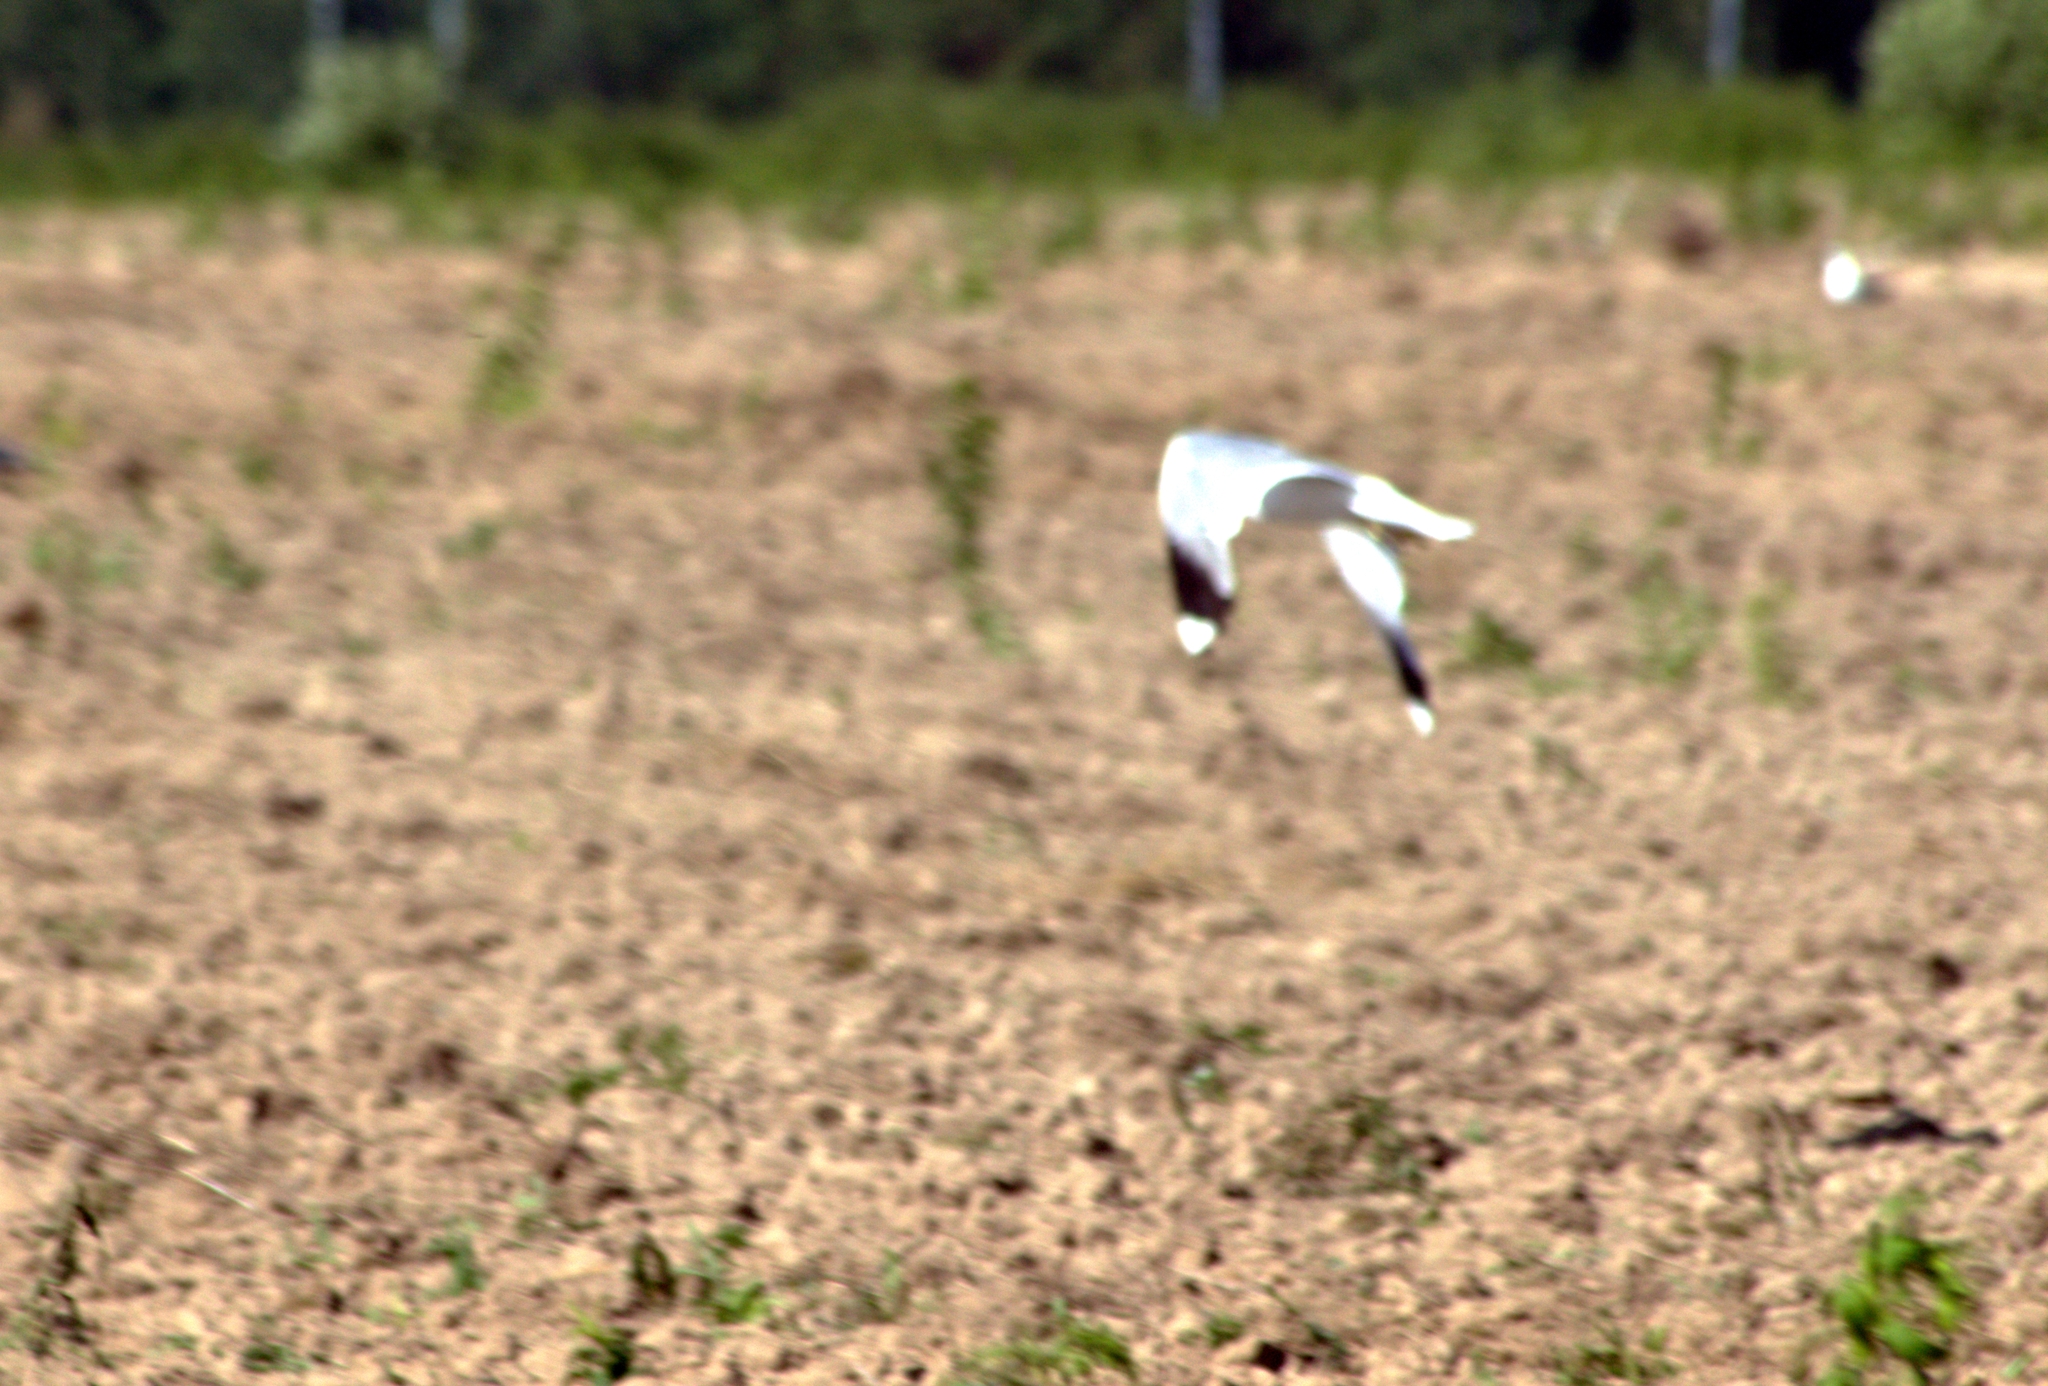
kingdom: Animalia
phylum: Chordata
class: Aves
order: Charadriiformes
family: Laridae
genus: Larus
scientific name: Larus canus
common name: Mew gull
